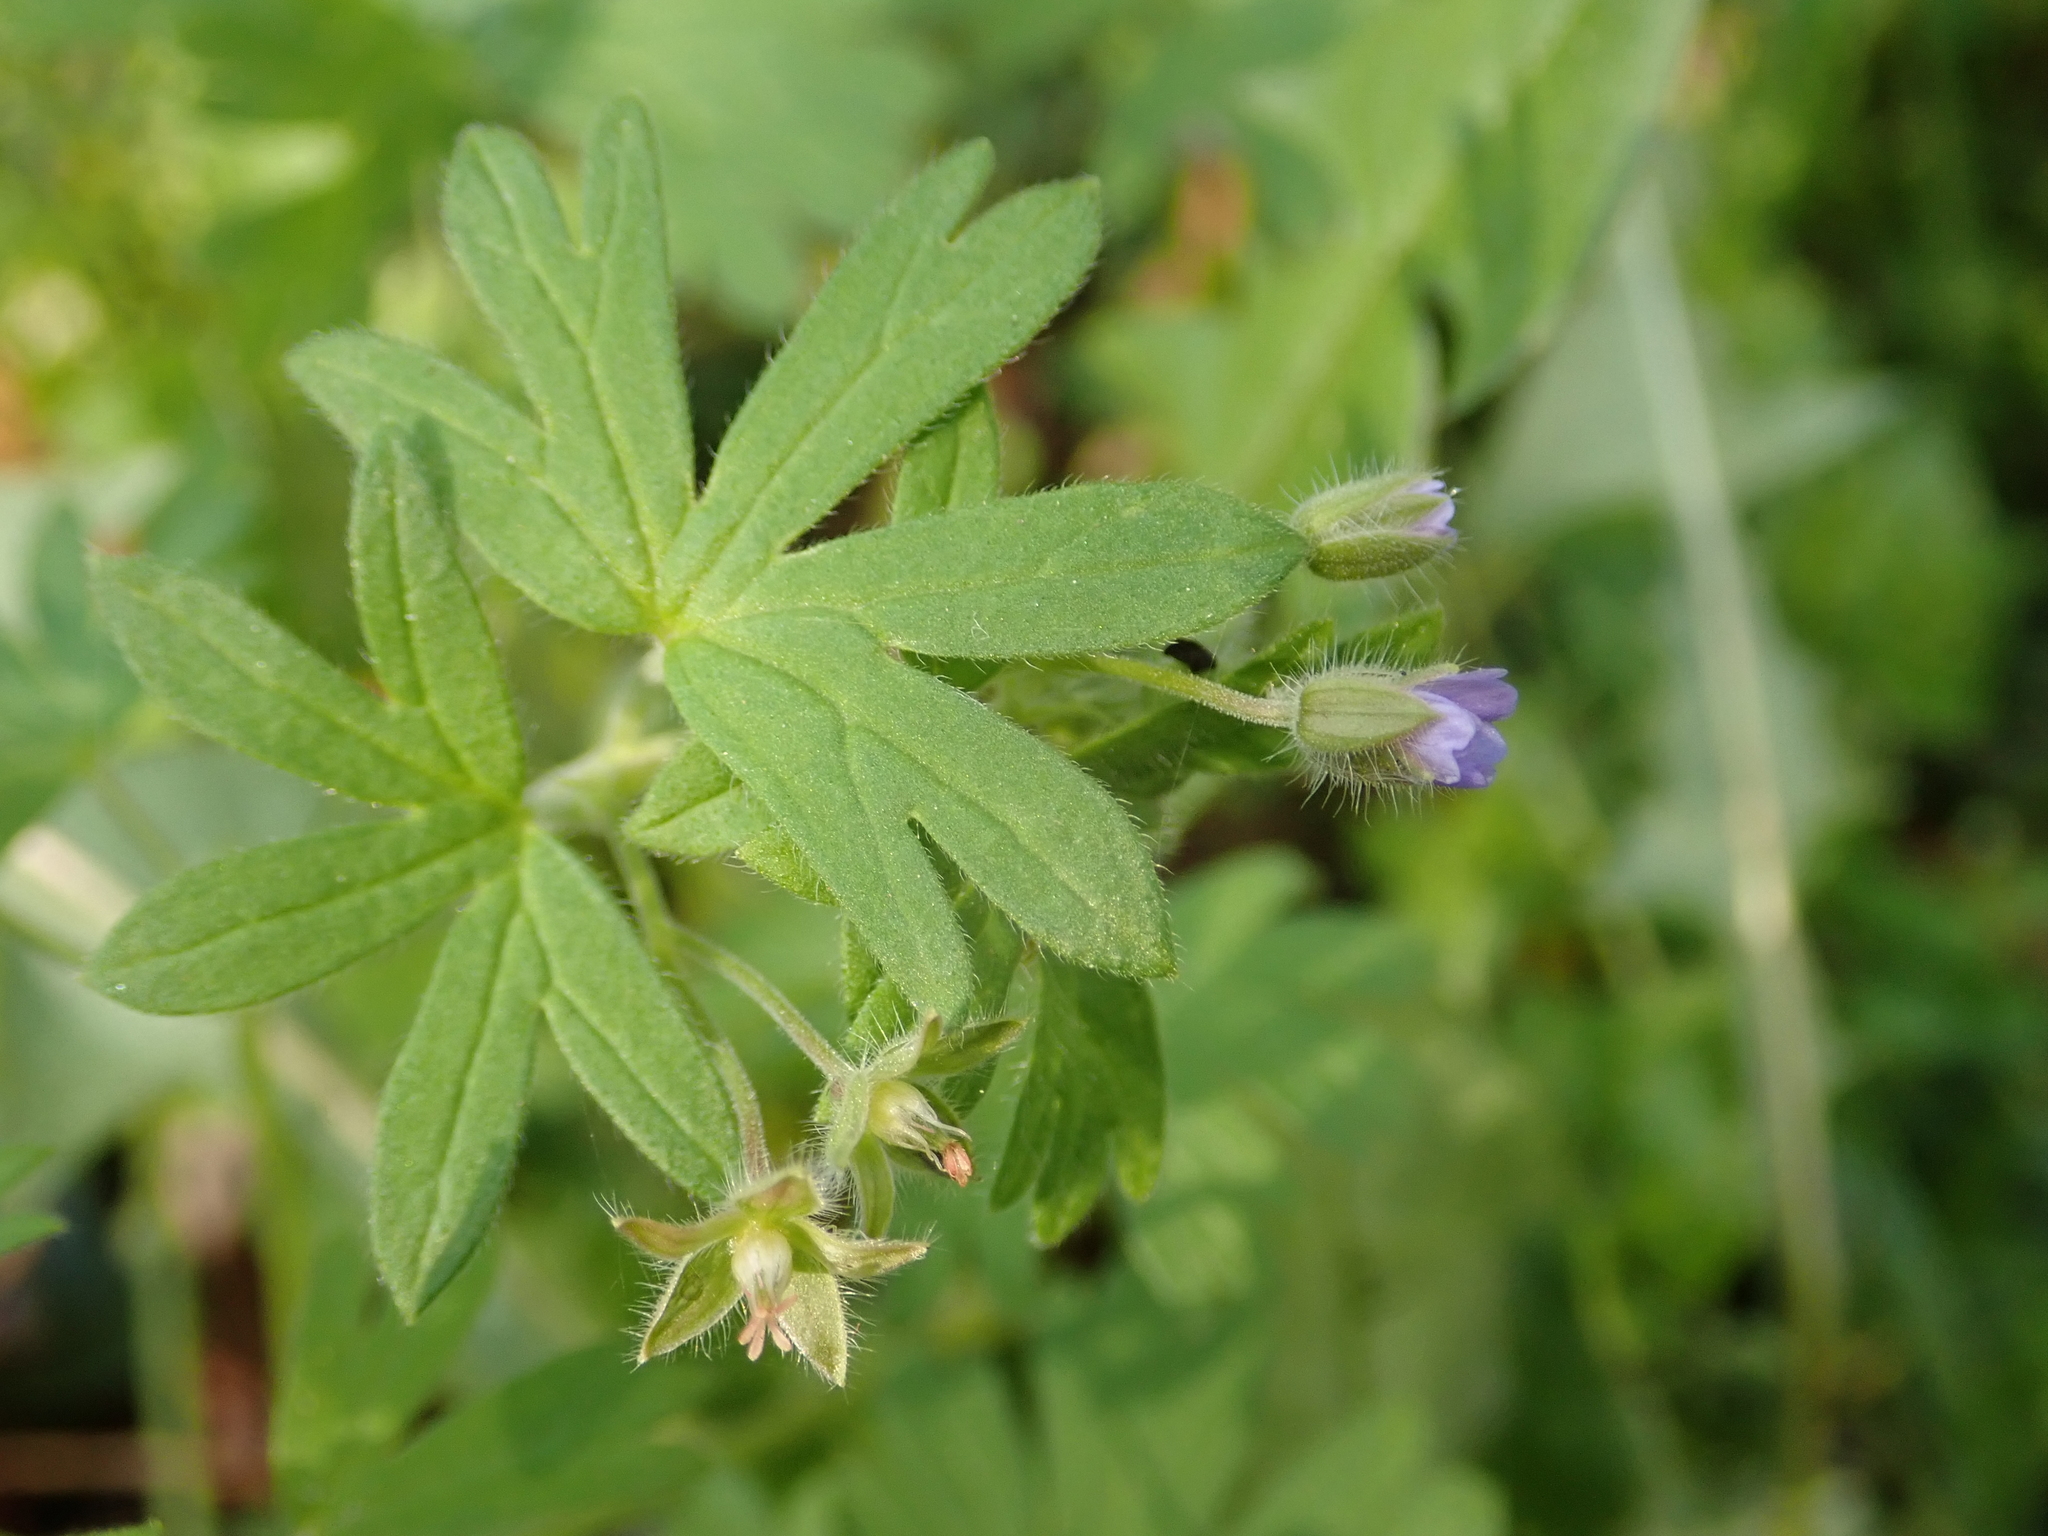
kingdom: Plantae
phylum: Tracheophyta
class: Magnoliopsida
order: Geraniales
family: Geraniaceae
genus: Geranium
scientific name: Geranium pusillum
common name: Small geranium
